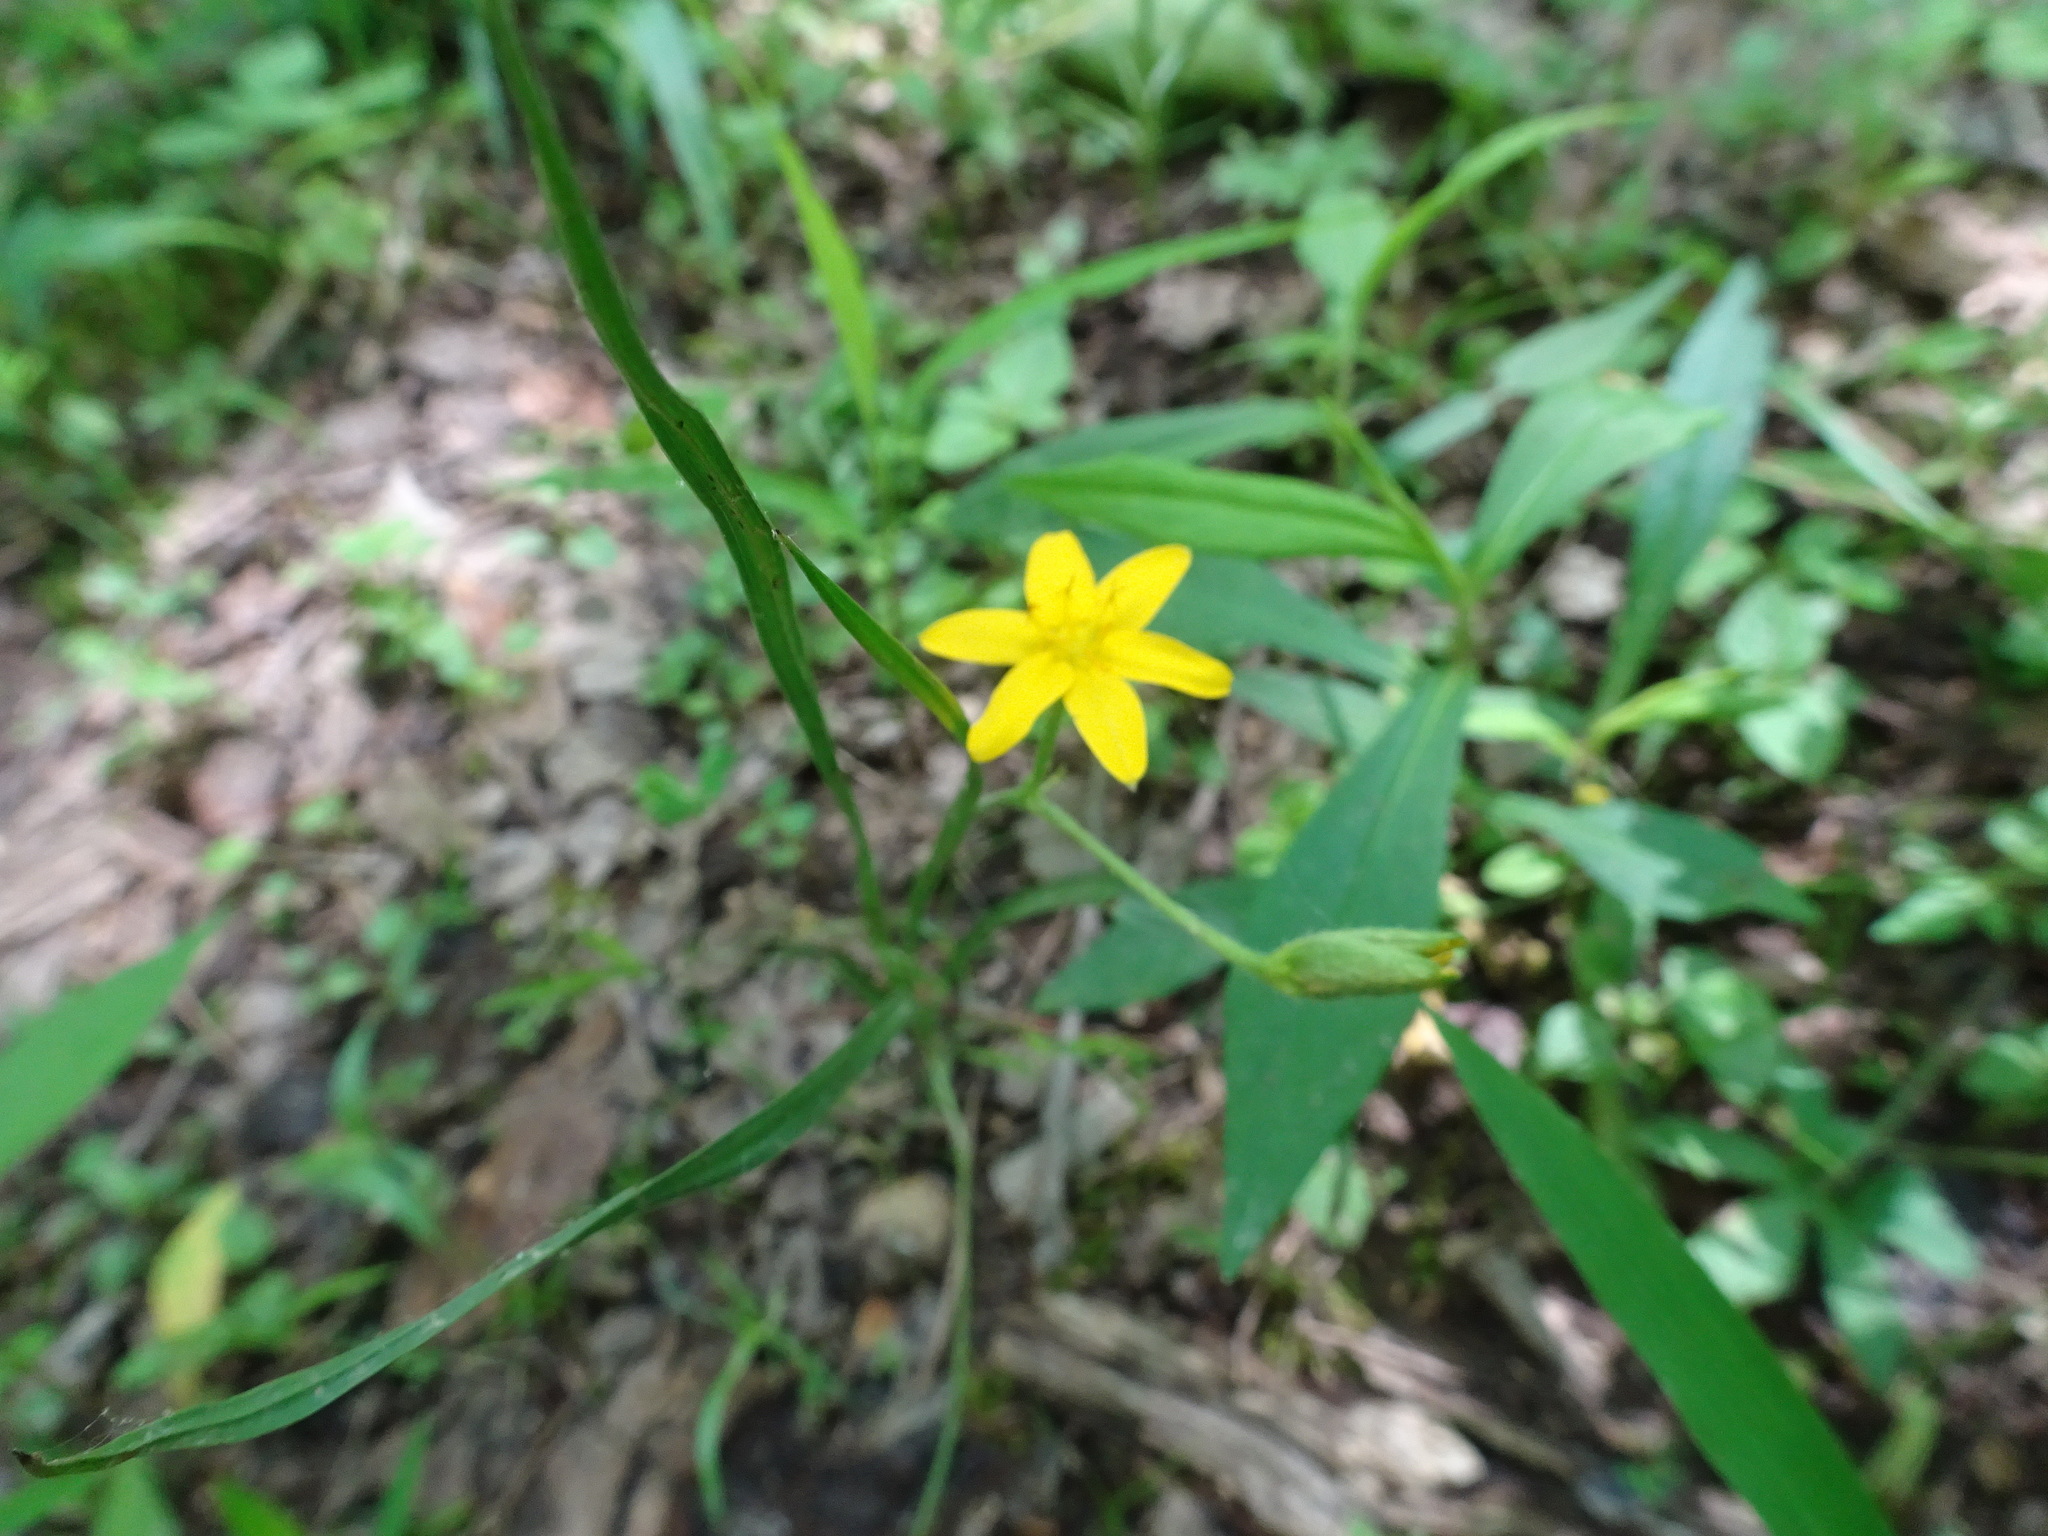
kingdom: Plantae
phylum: Tracheophyta
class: Liliopsida
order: Asparagales
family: Hypoxidaceae
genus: Hypoxis
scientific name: Hypoxis hirsuta
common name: Common goldstar
